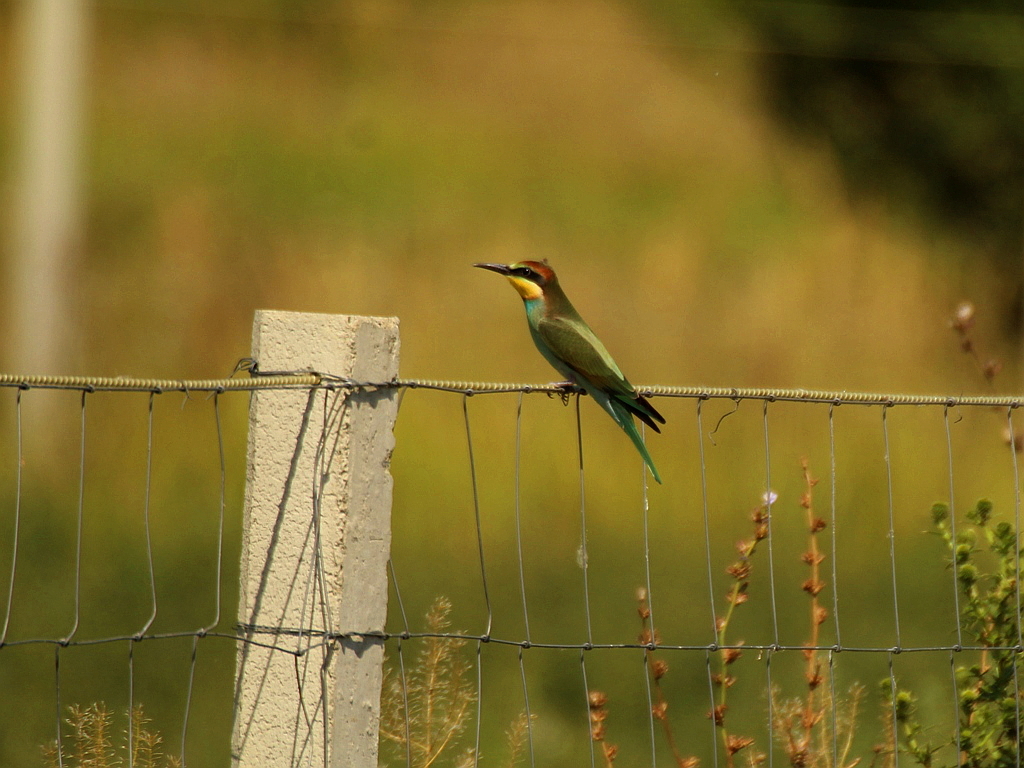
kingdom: Animalia
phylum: Chordata
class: Aves
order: Coraciiformes
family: Meropidae
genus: Merops
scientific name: Merops apiaster
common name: European bee-eater
